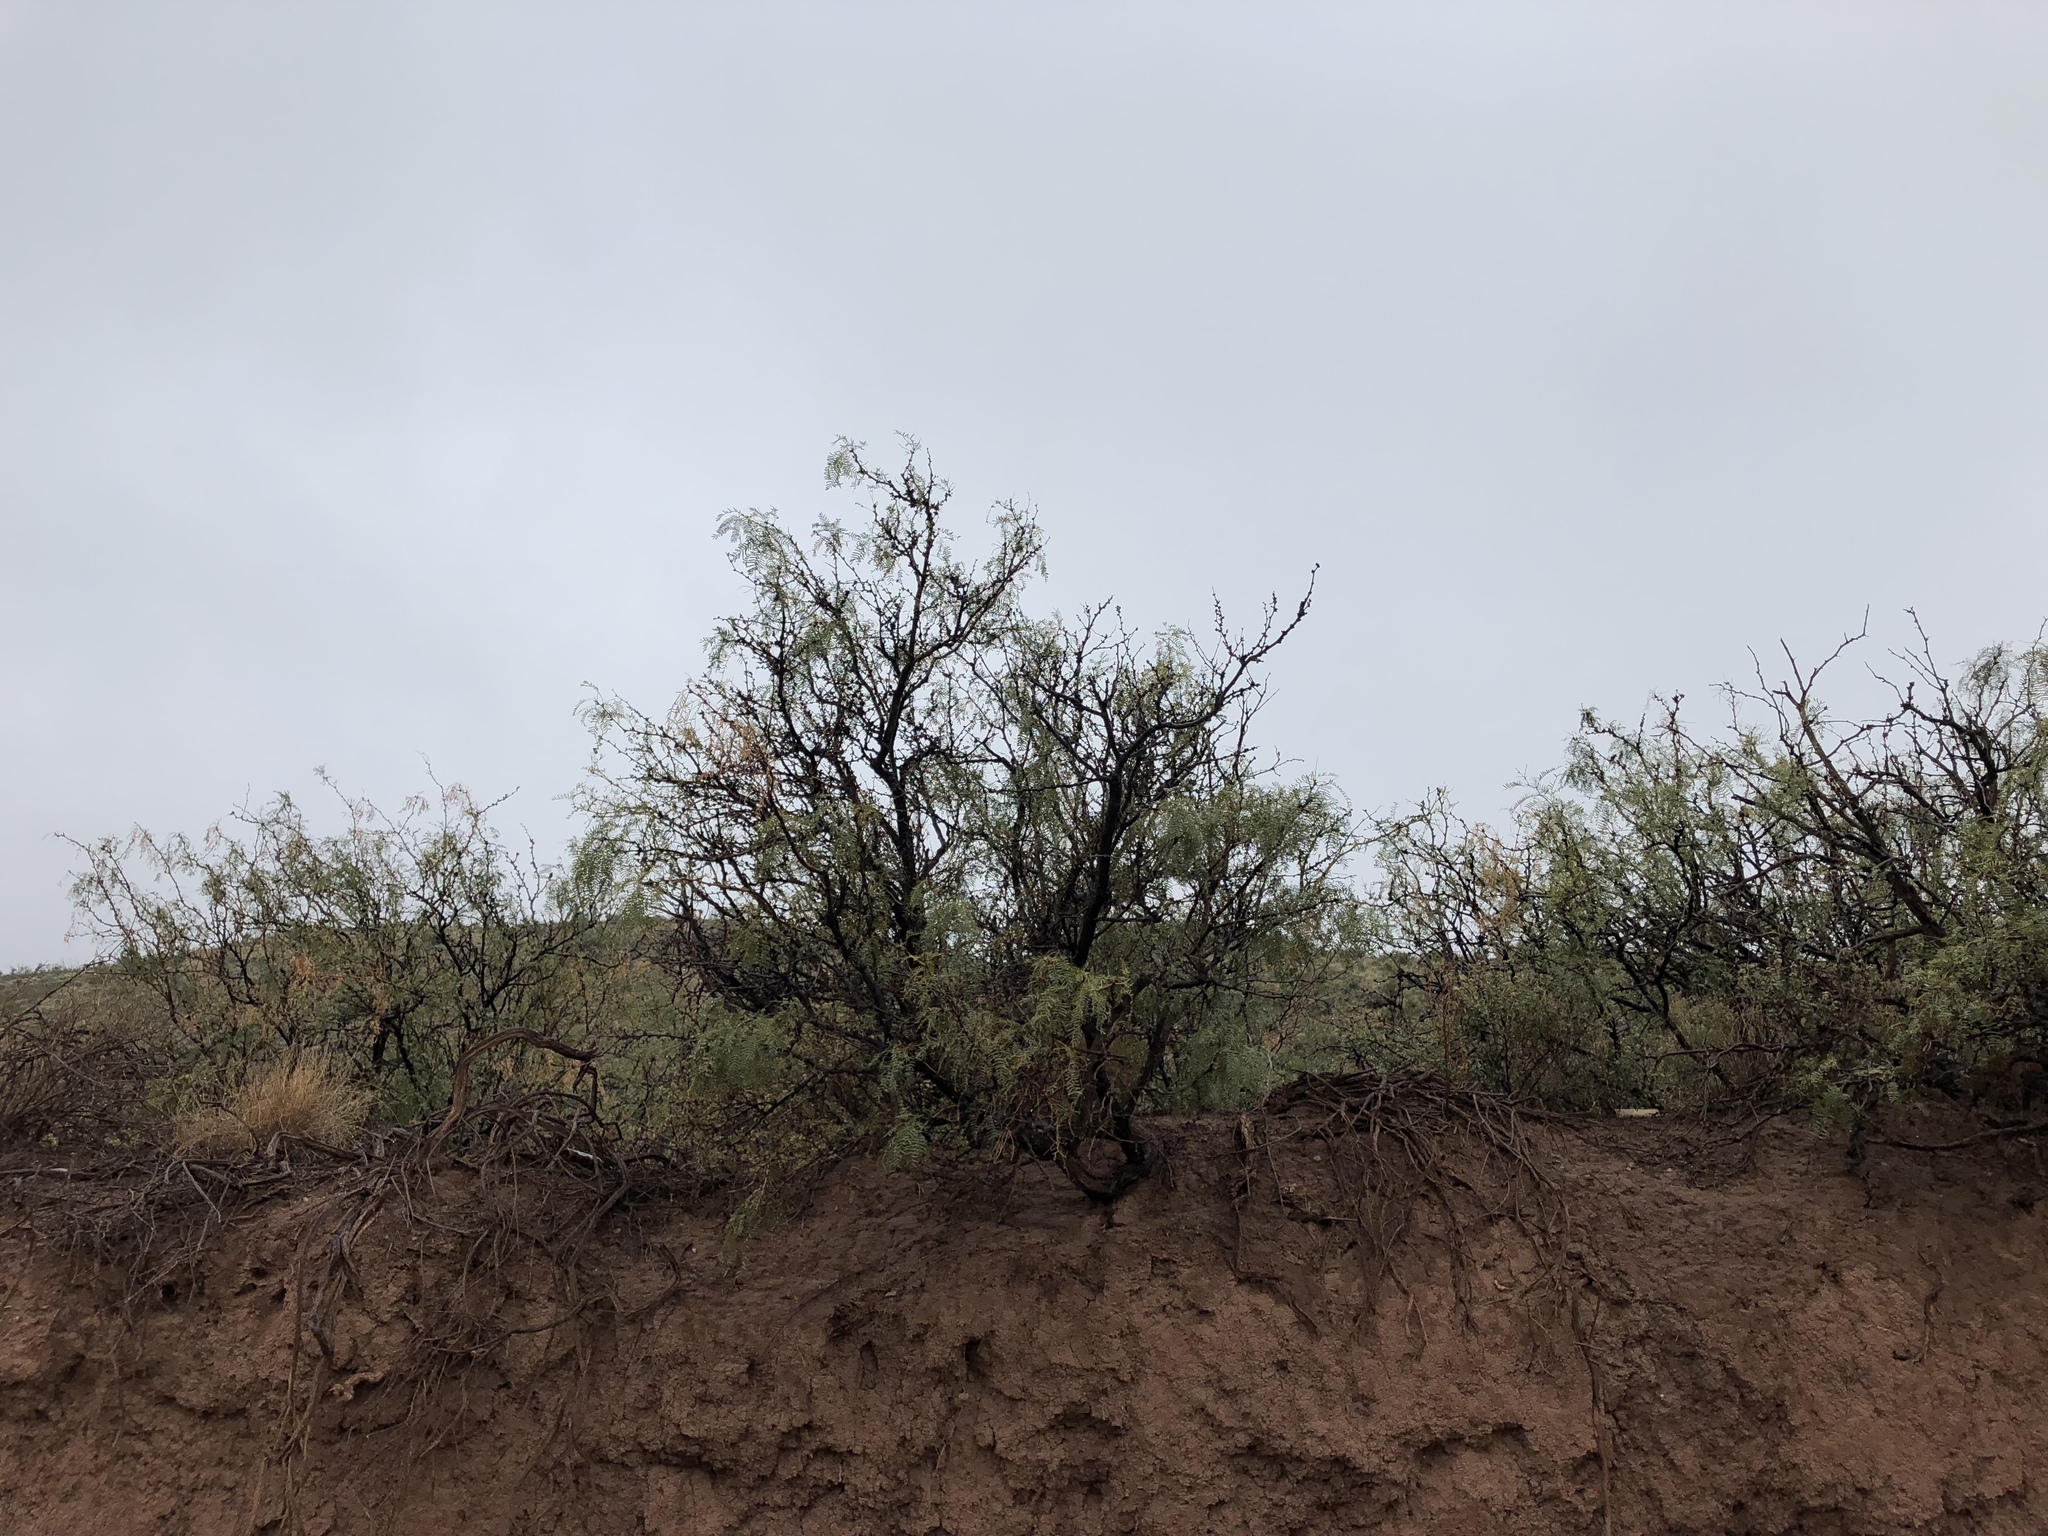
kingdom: Plantae
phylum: Tracheophyta
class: Magnoliopsida
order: Fabales
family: Fabaceae
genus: Prosopis
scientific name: Prosopis glandulosa
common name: Honey mesquite
